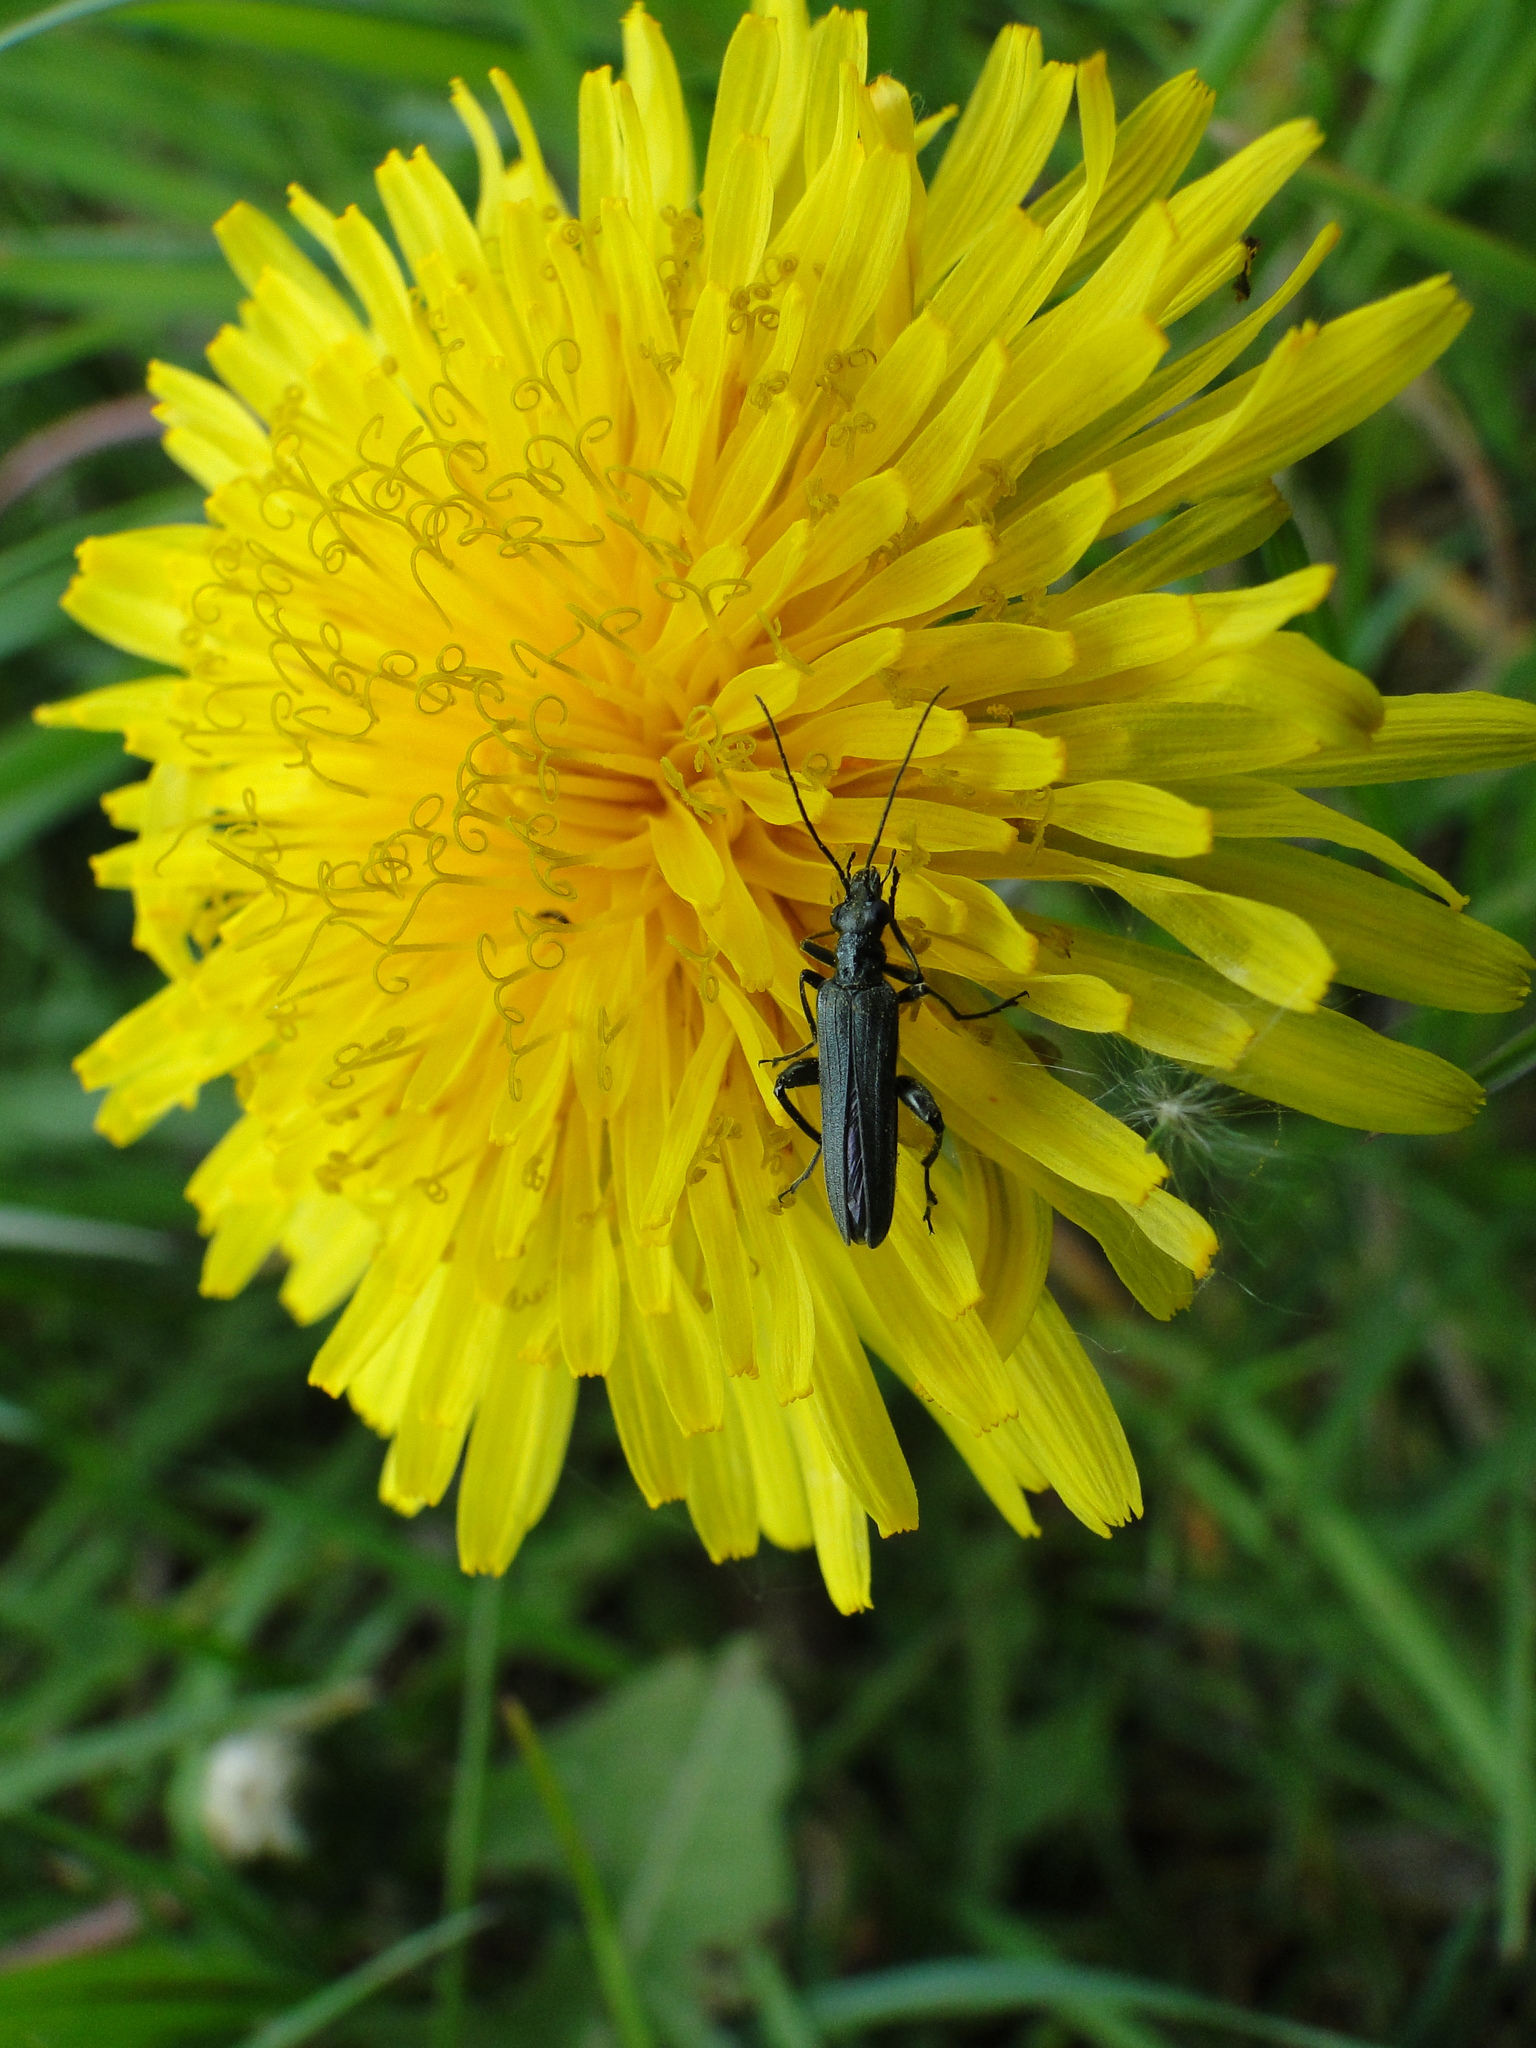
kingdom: Animalia
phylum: Arthropoda
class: Insecta
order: Coleoptera
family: Oedemeridae
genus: Oedemera
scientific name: Oedemera virescens
